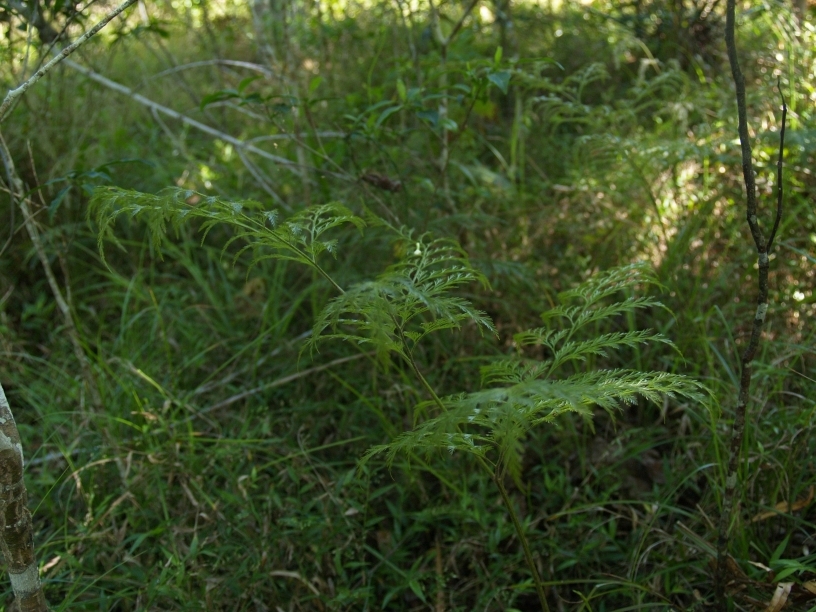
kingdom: Plantae
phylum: Tracheophyta
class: Polypodiopsida
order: Polypodiales
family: Davalliaceae
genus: Davallia
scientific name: Davallia fejeensis
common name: Lacy hare's-foot fern
